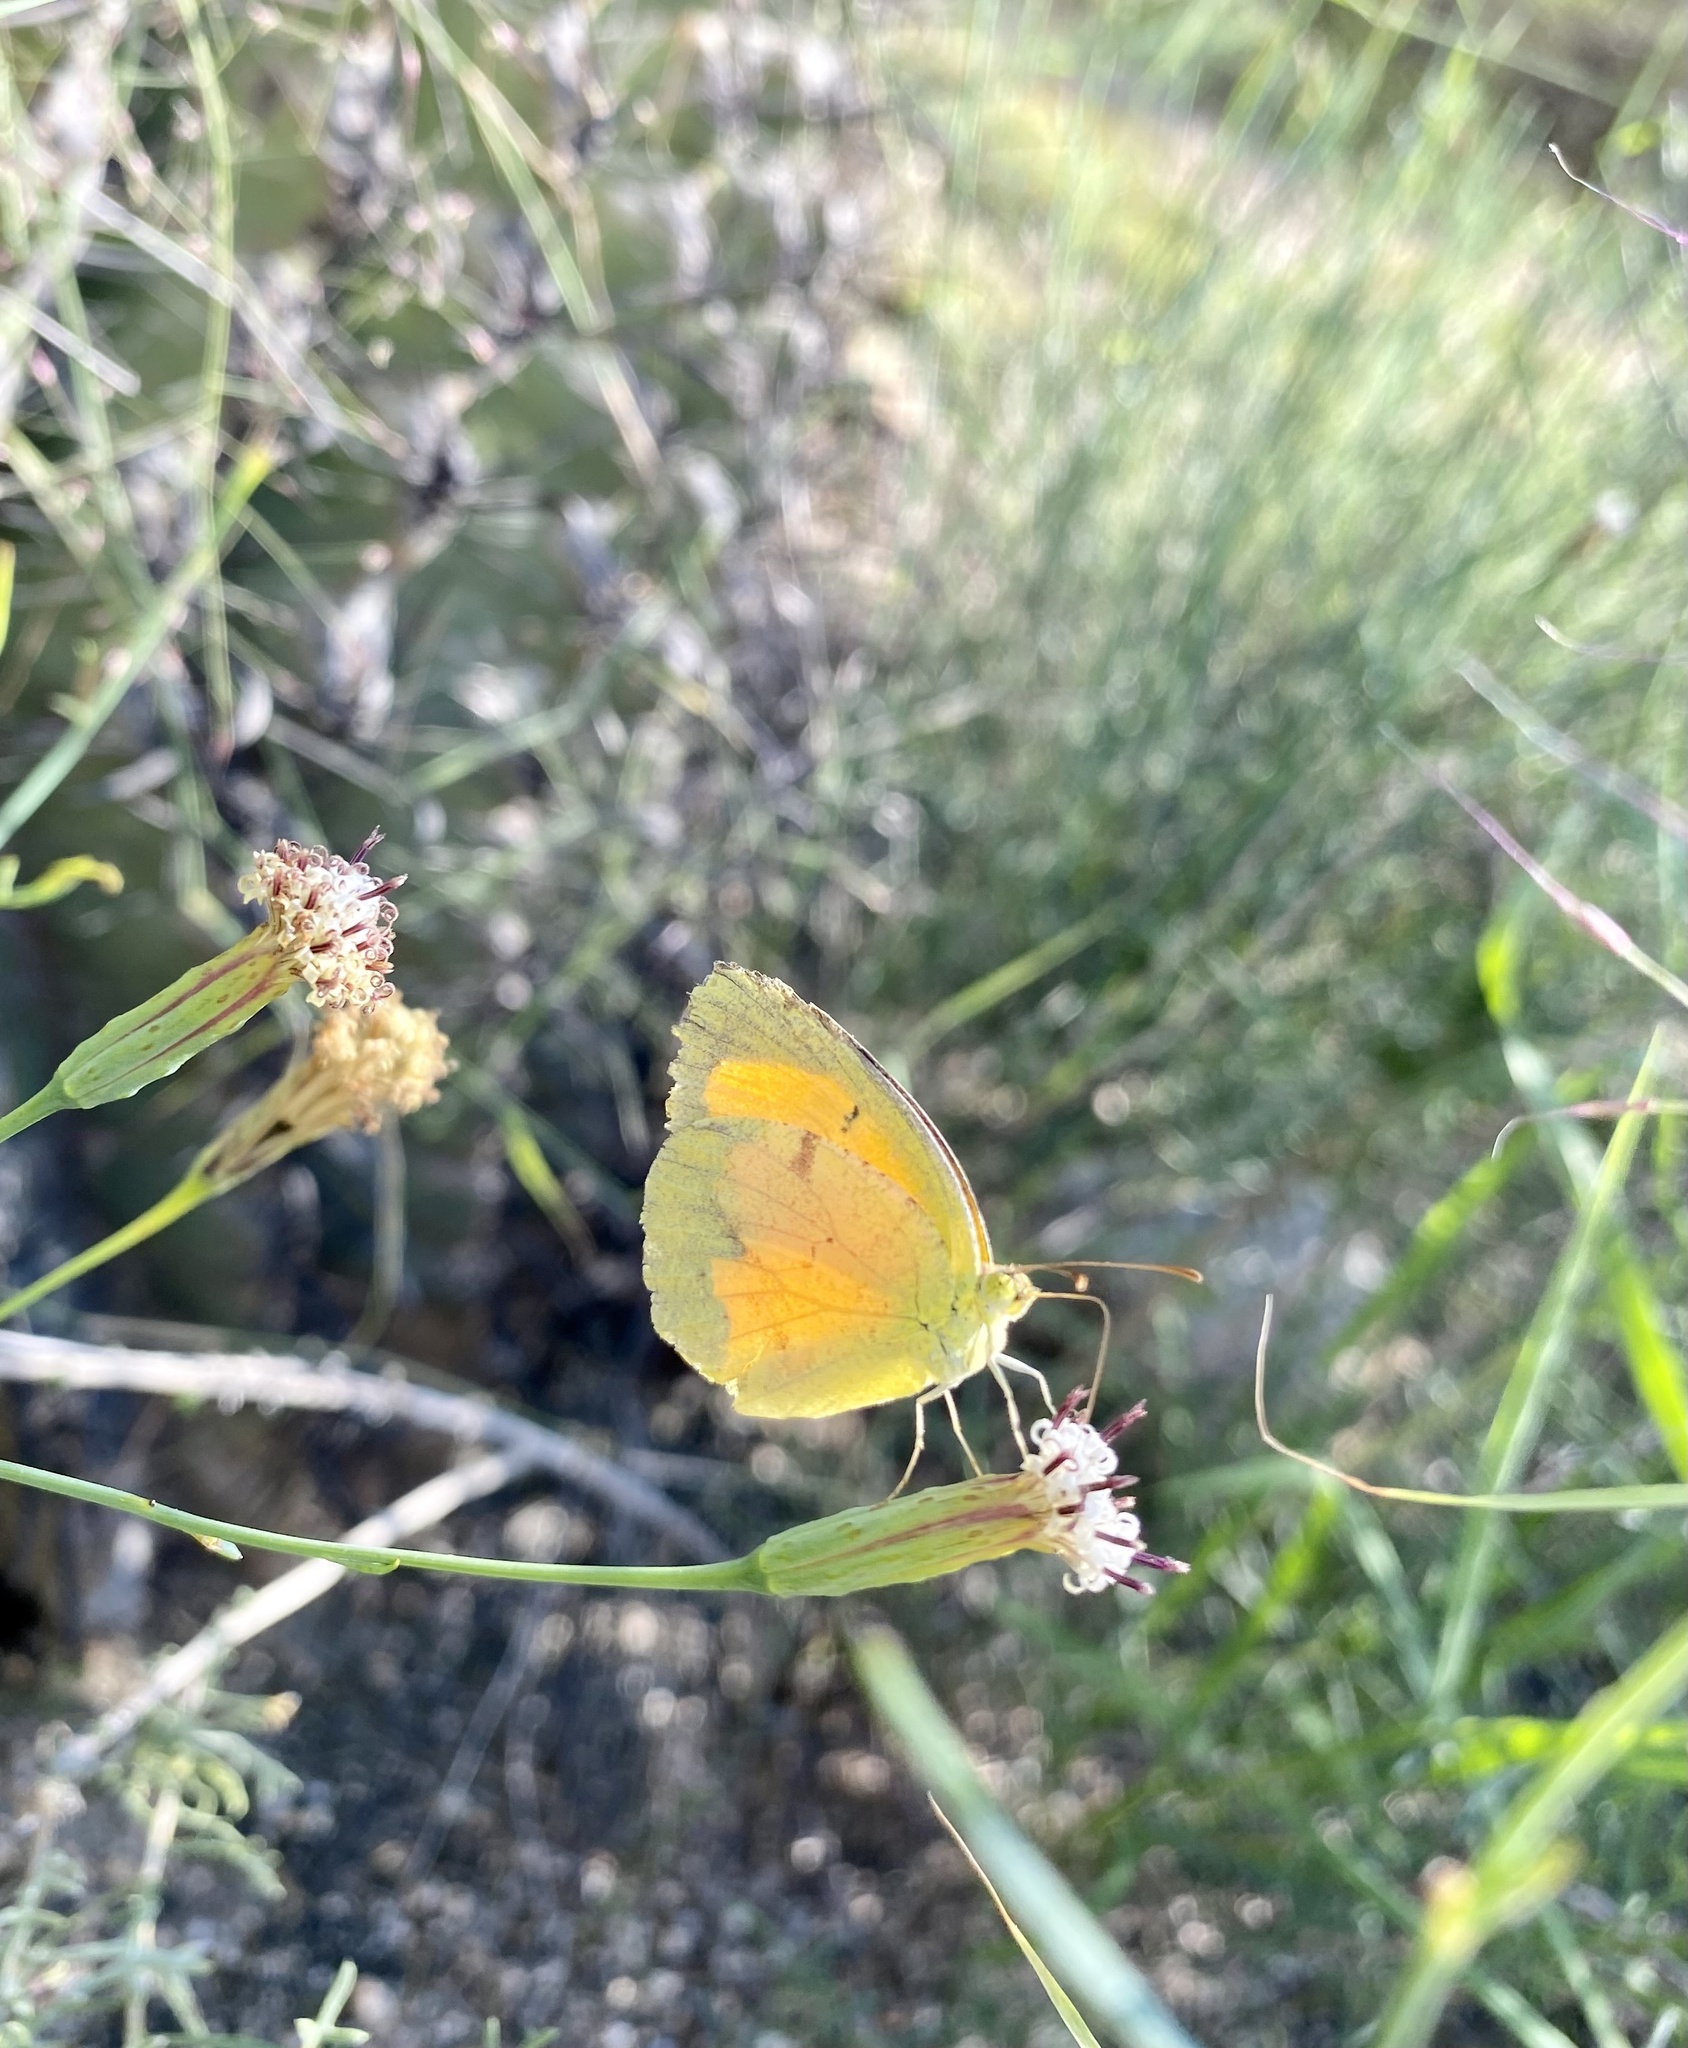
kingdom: Animalia
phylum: Arthropoda
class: Insecta
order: Lepidoptera
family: Pieridae
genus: Abaeis
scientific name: Abaeis nicippe
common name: Sleepy orange
